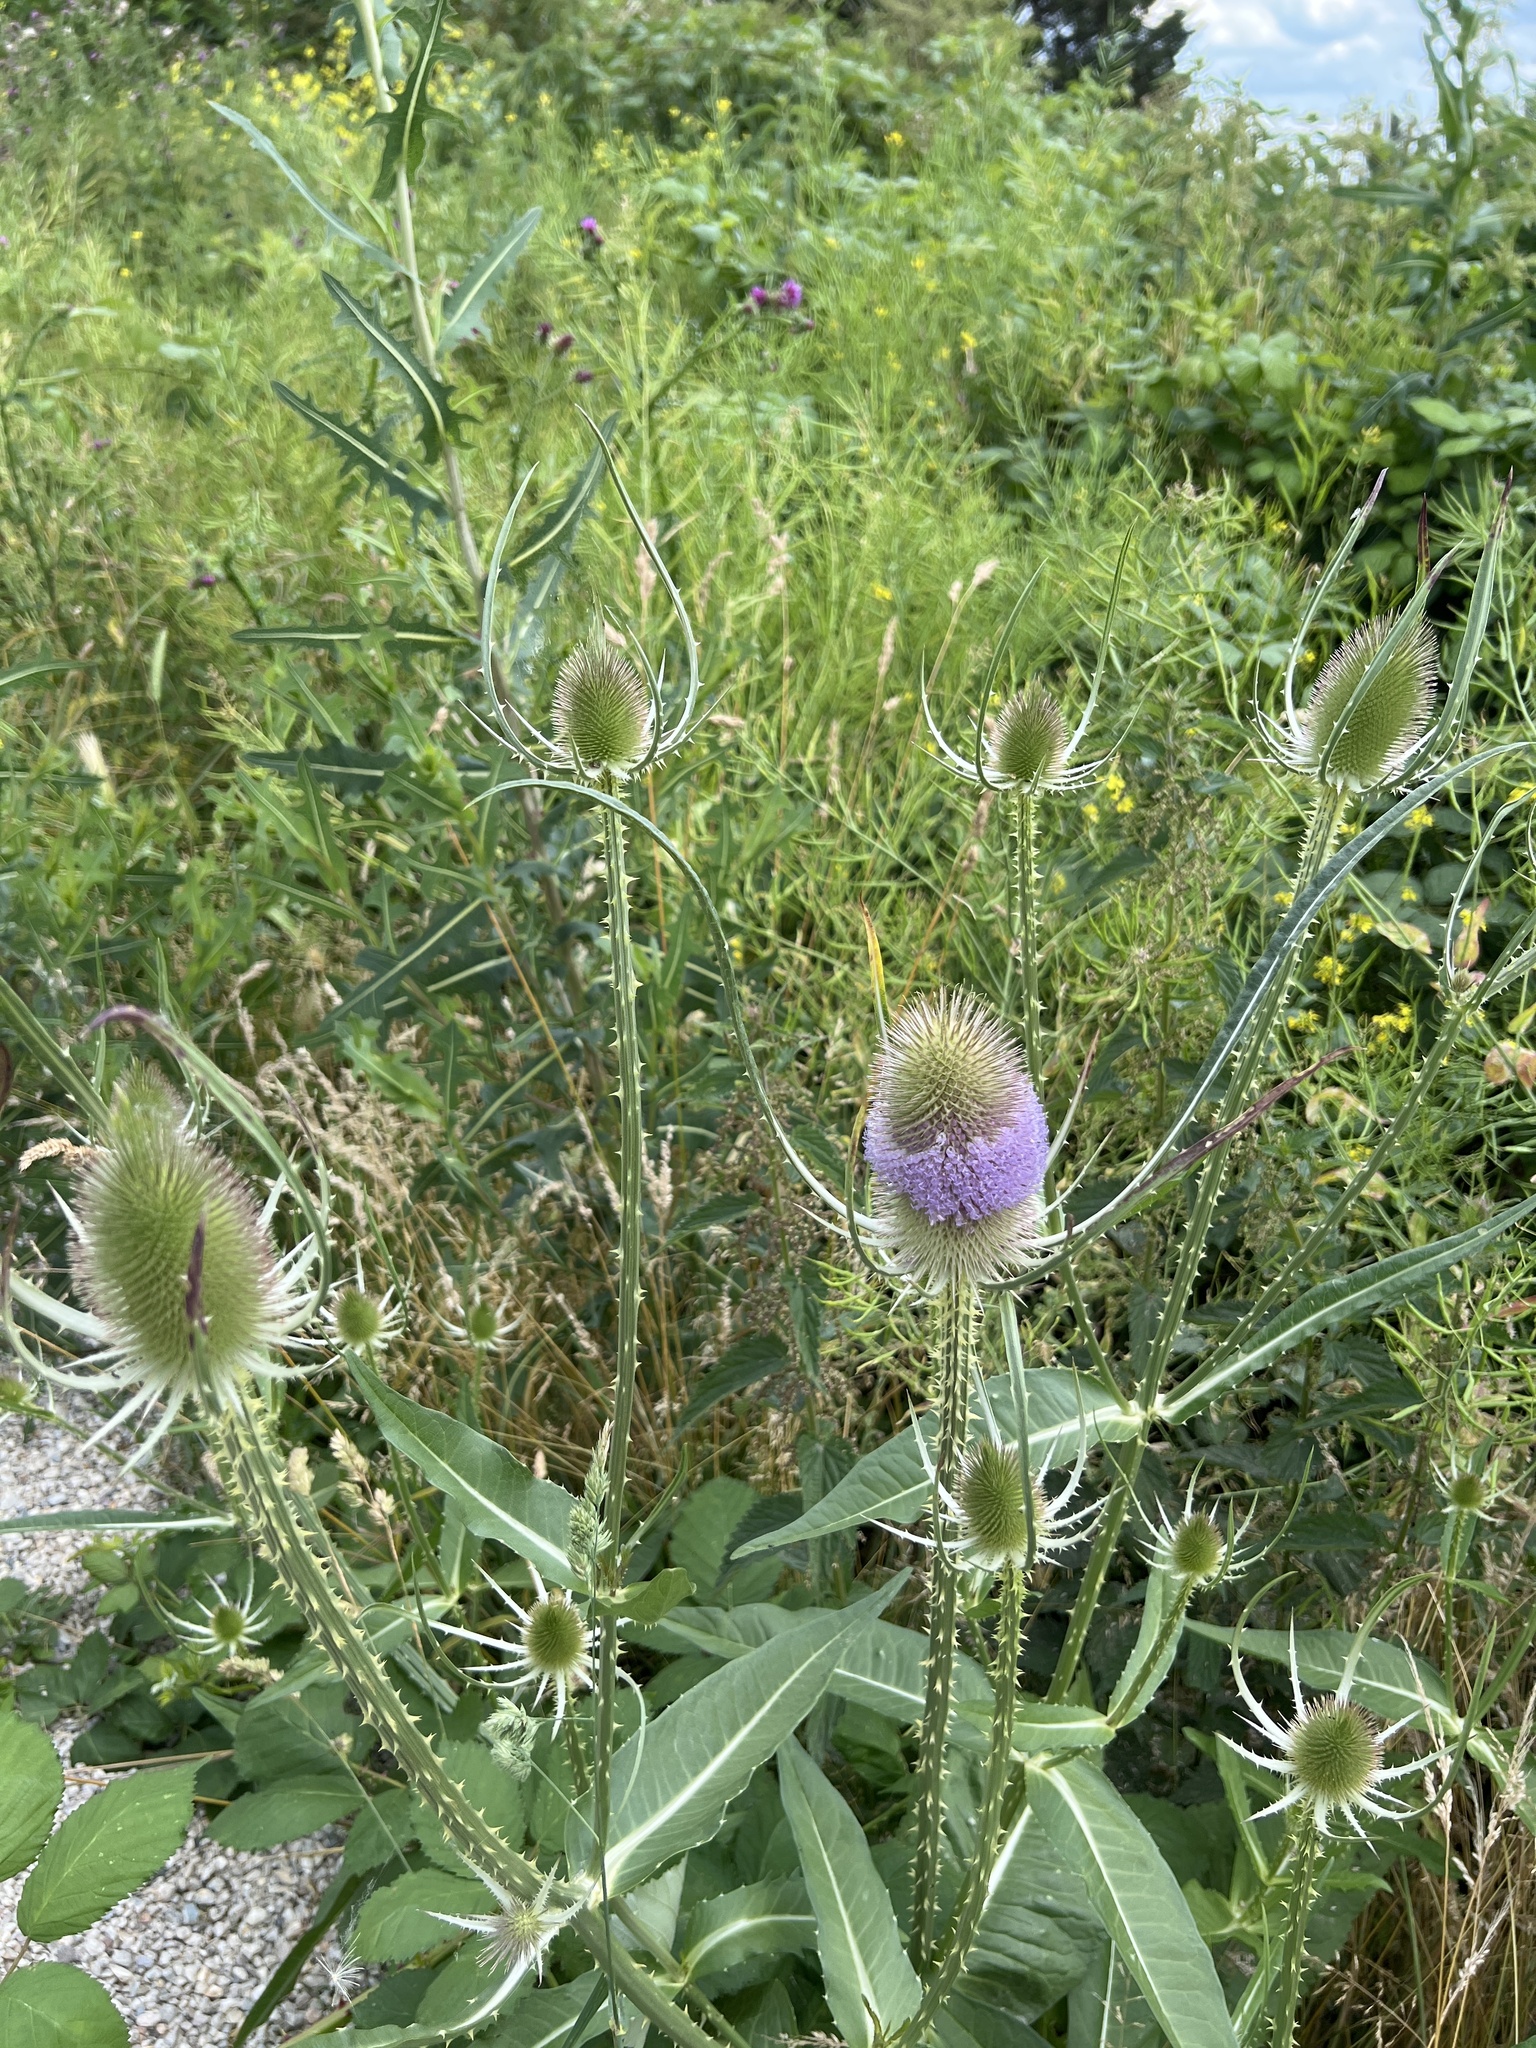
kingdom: Plantae
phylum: Tracheophyta
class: Magnoliopsida
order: Dipsacales
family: Caprifoliaceae
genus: Dipsacus
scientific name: Dipsacus fullonum
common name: Teasel
